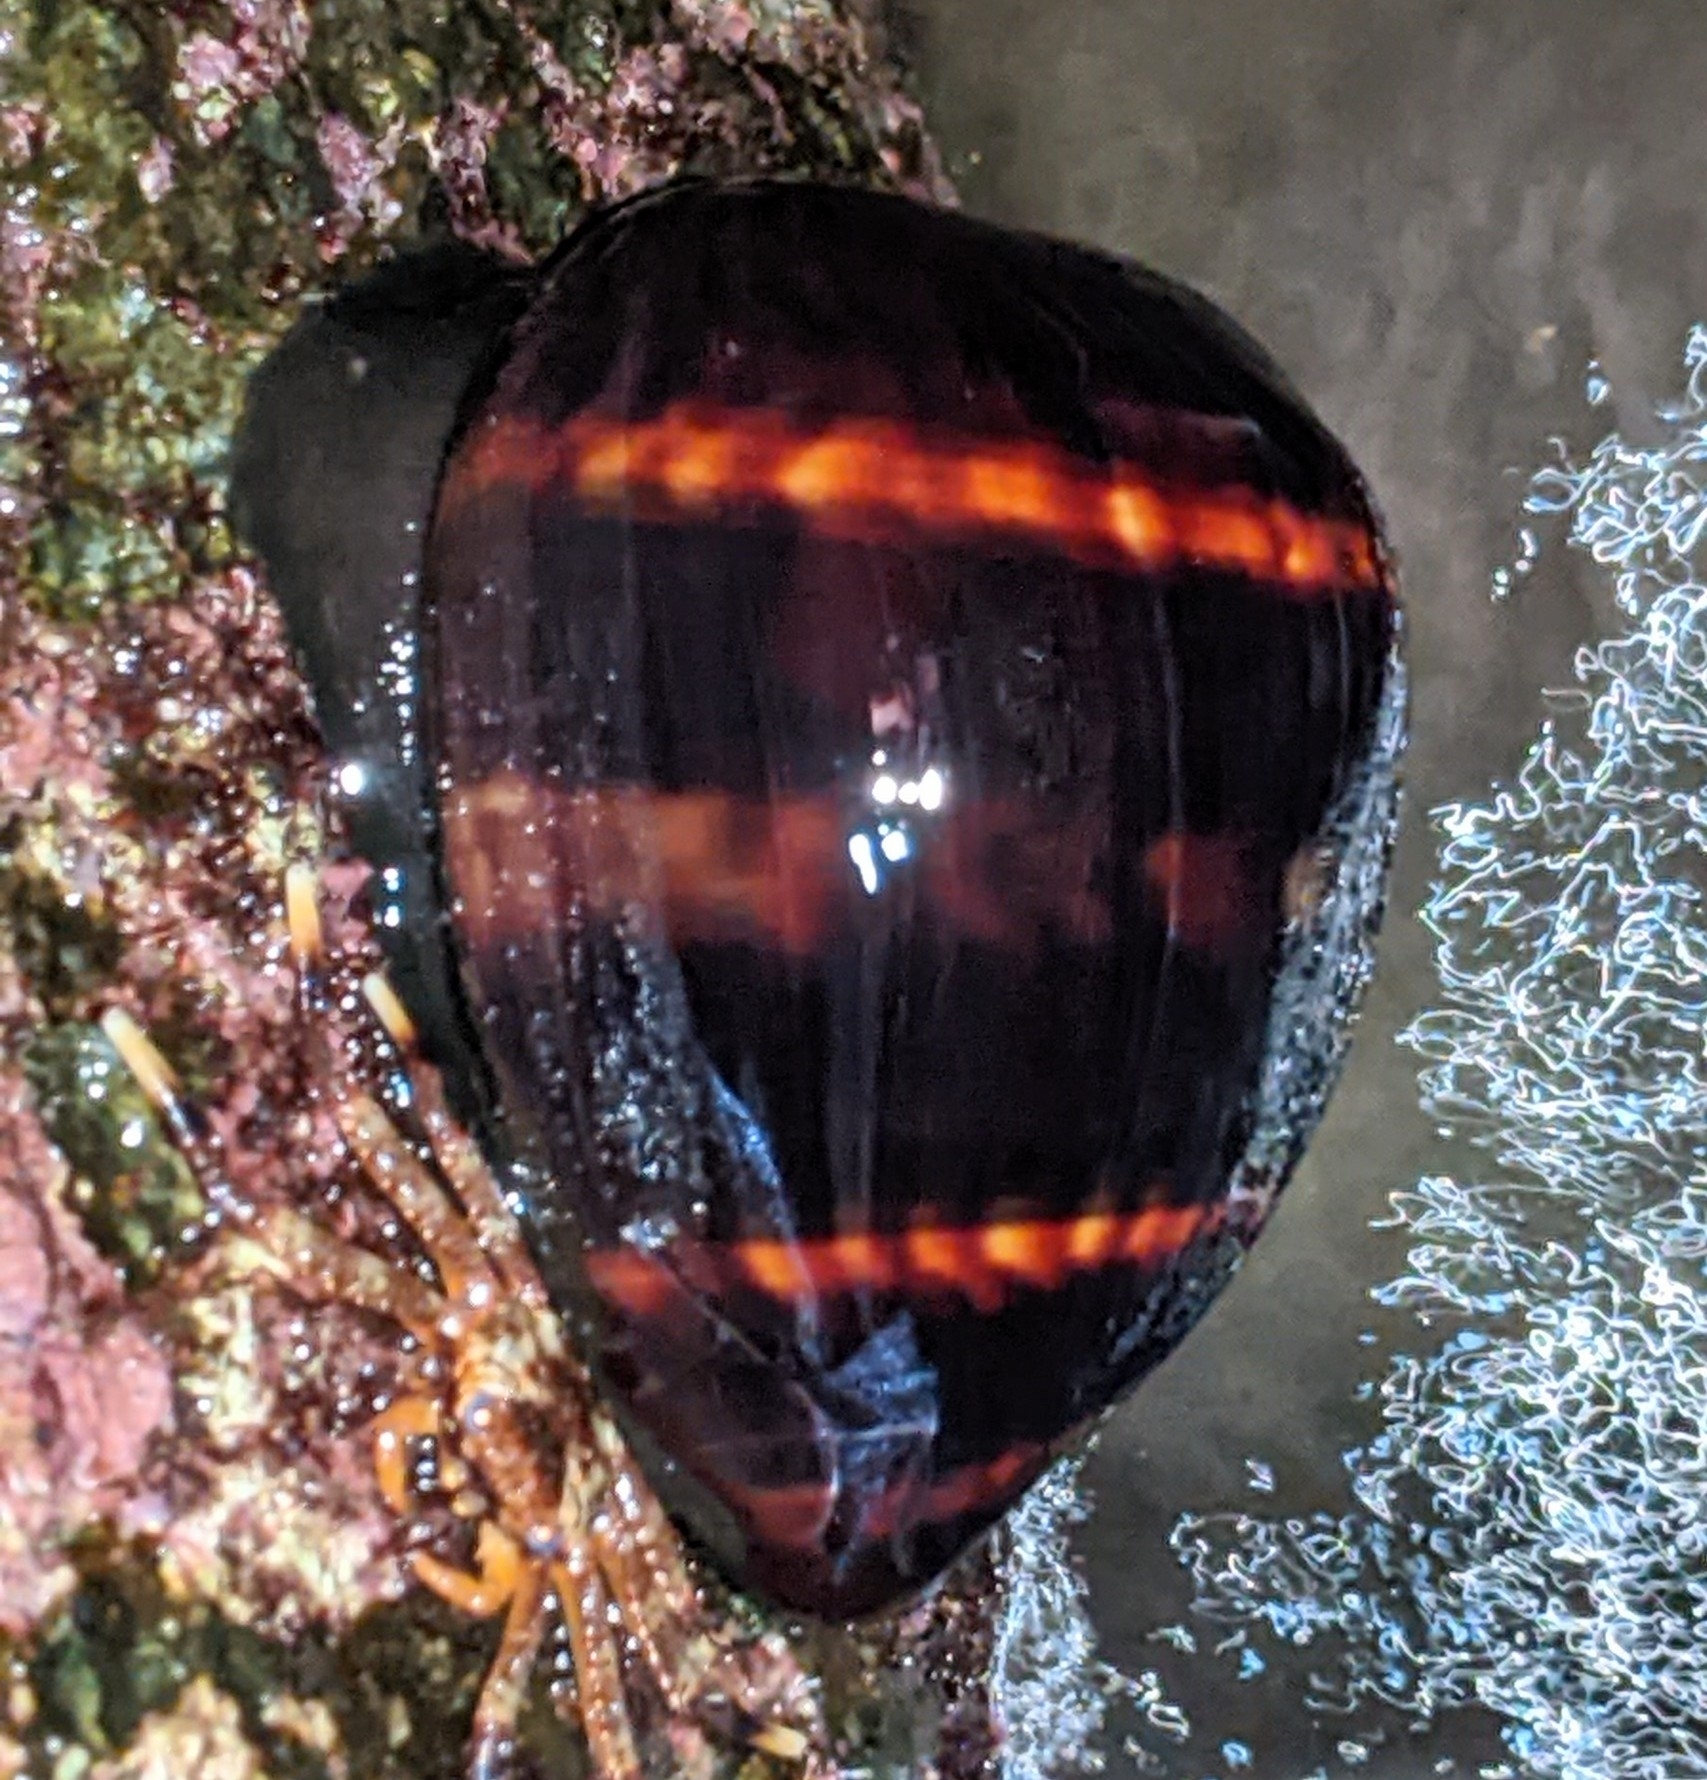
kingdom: Animalia
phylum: Mollusca
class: Gastropoda
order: Littorinimorpha
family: Cypraeidae
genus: Mauritia
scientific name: Mauritia mauritiana
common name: Hump-backed cowrie
